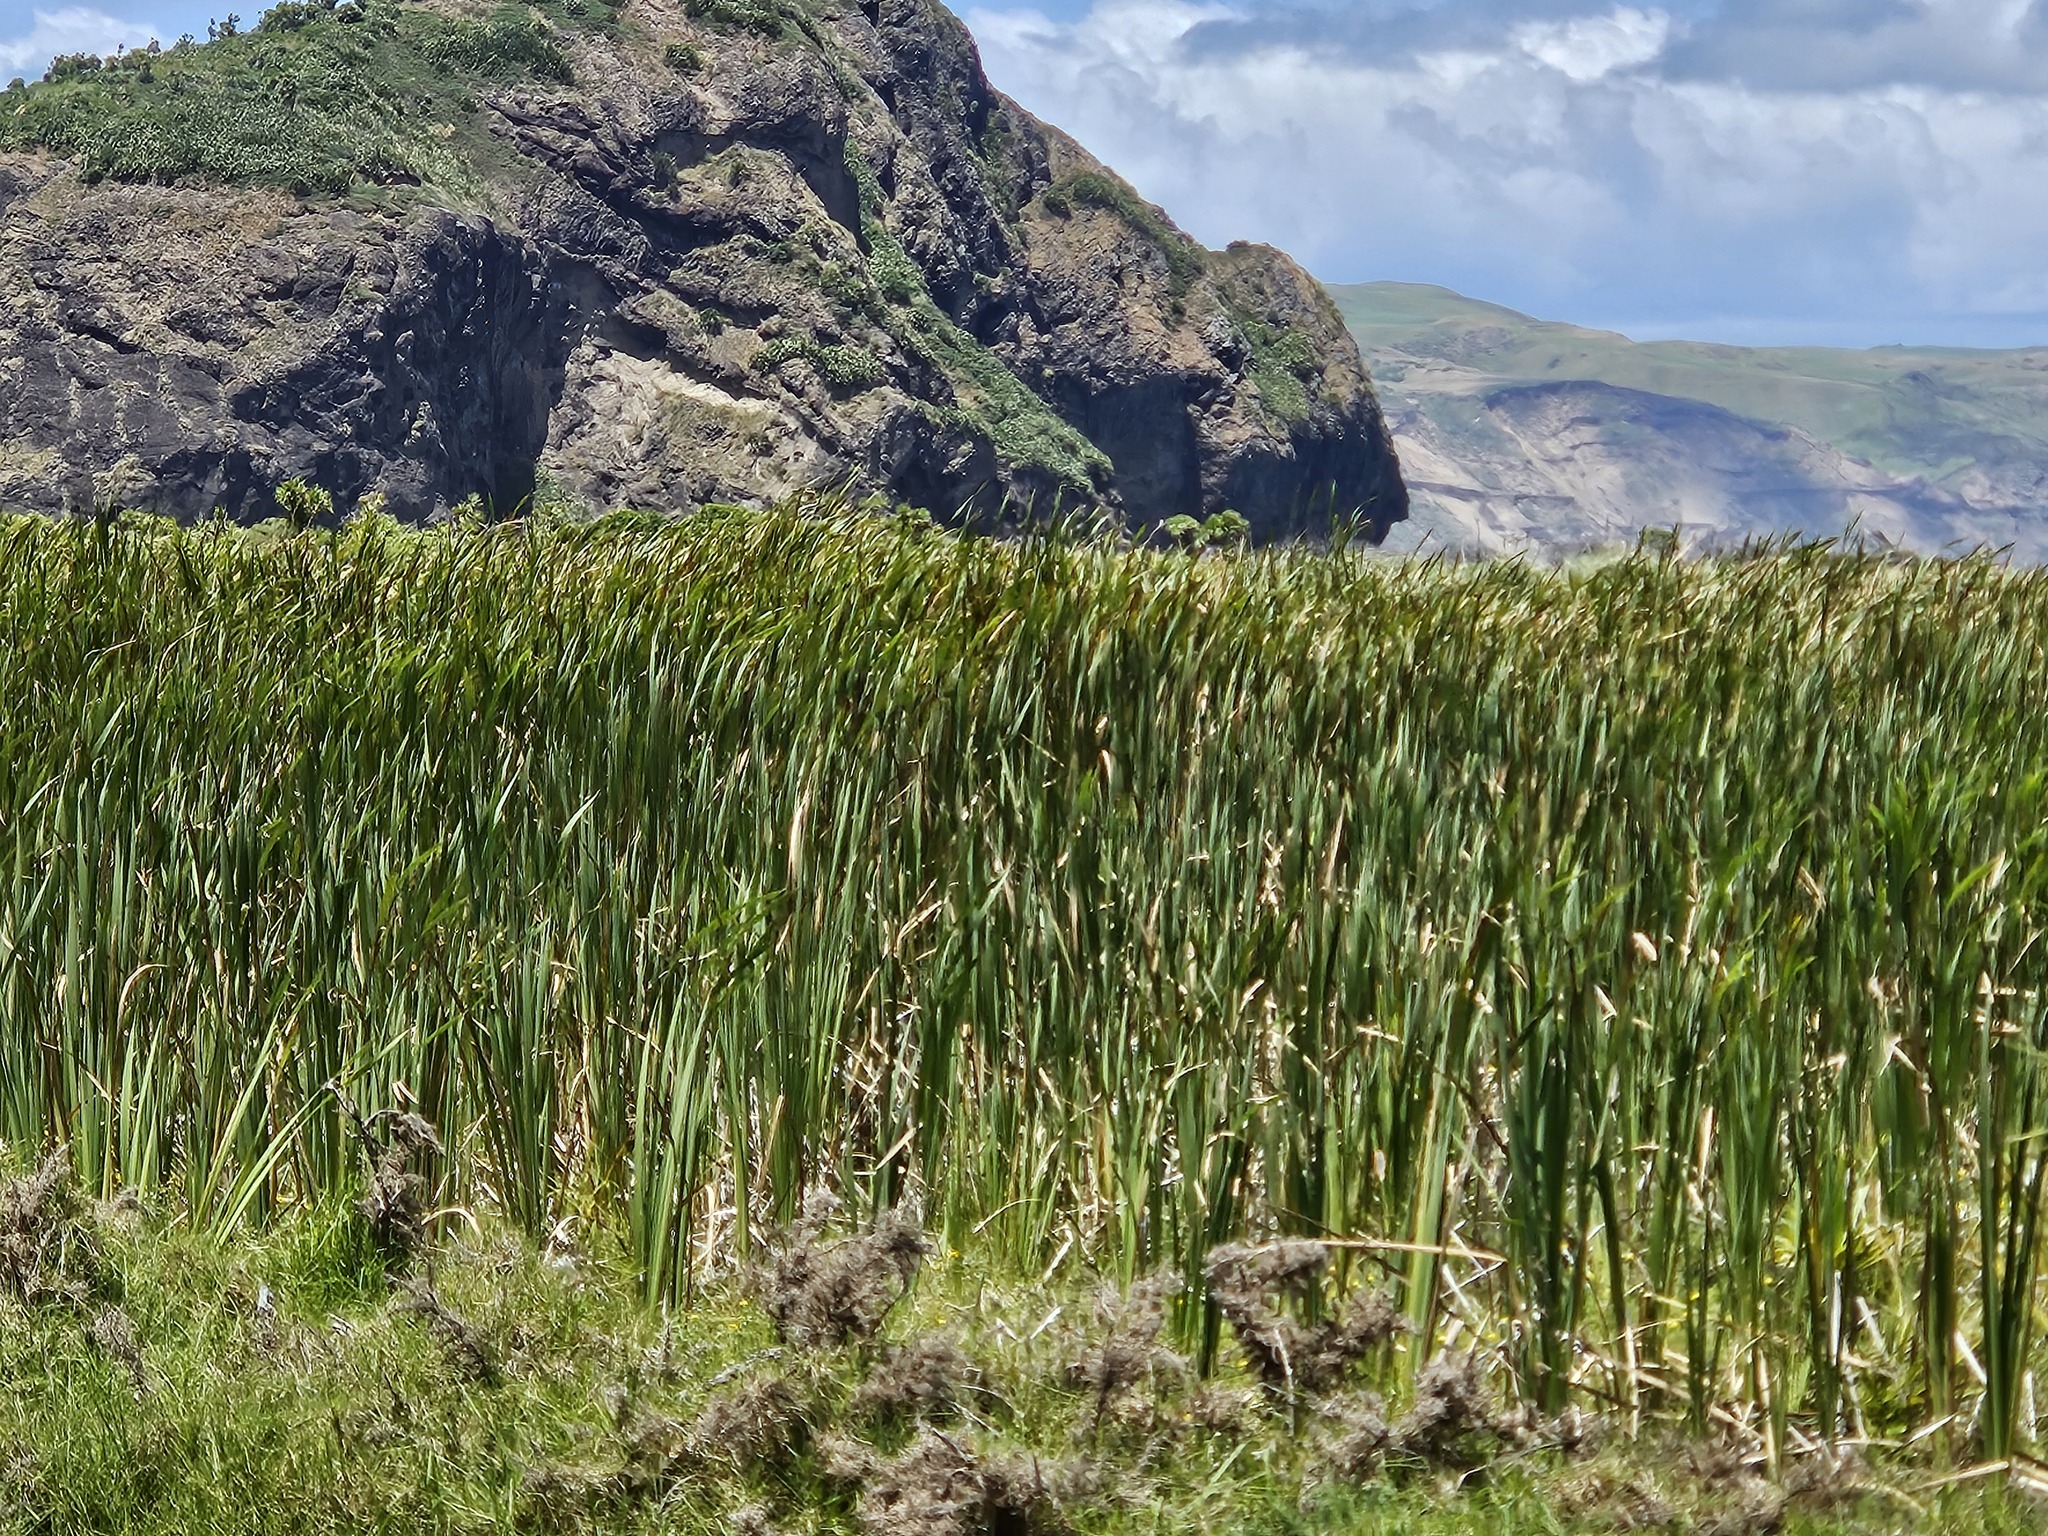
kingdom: Plantae
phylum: Tracheophyta
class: Liliopsida
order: Poales
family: Typhaceae
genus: Typha
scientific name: Typha orientalis
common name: Bullrush
